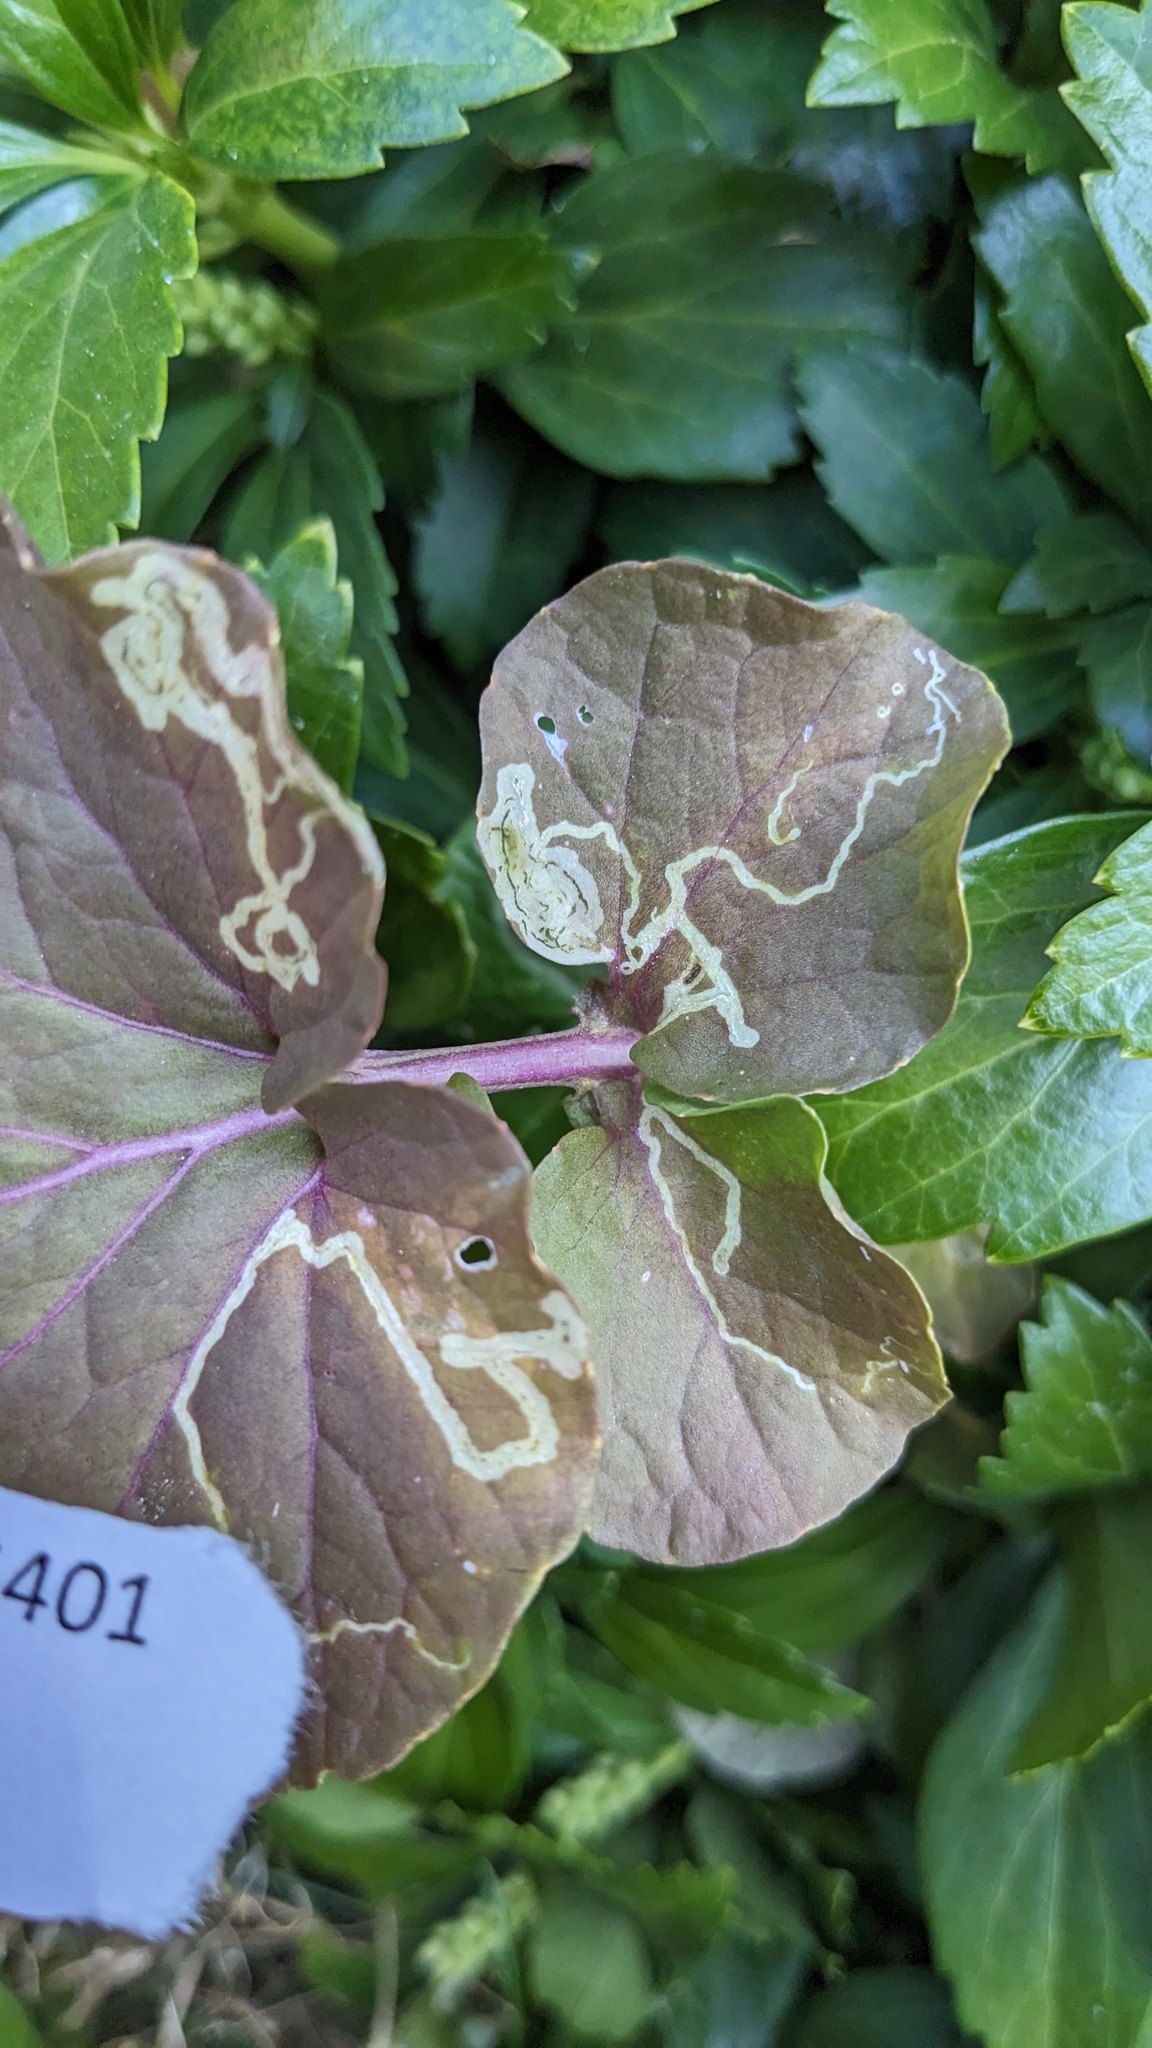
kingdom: Animalia
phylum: Arthropoda
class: Insecta
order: Diptera
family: Agromyzidae
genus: Liriomyza
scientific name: Liriomyza brassicae
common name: Serpentine leaf miner
